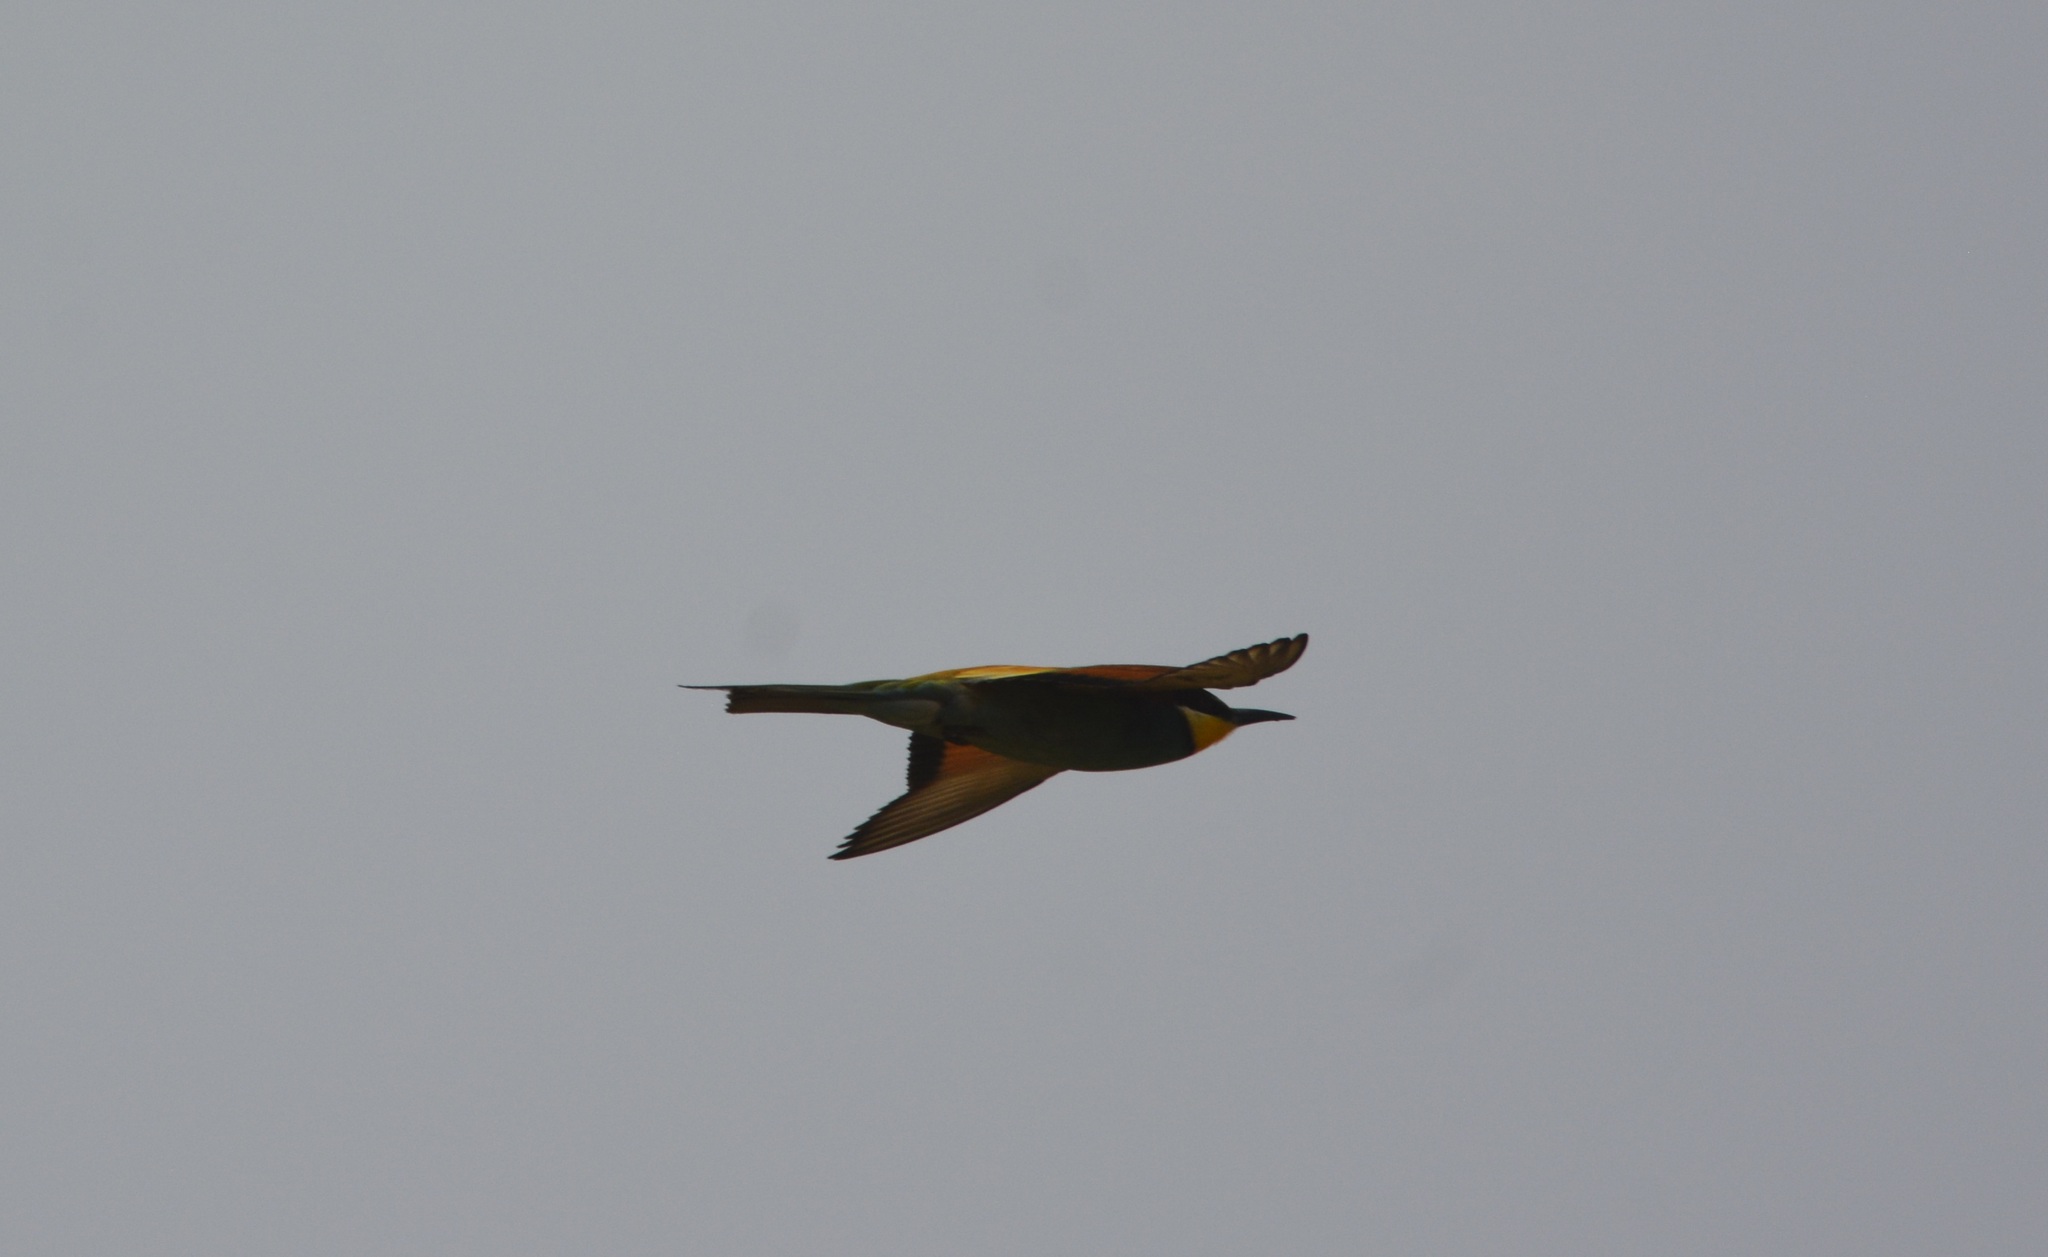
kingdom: Animalia
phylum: Chordata
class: Aves
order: Coraciiformes
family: Meropidae
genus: Merops
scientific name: Merops apiaster
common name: European bee-eater
